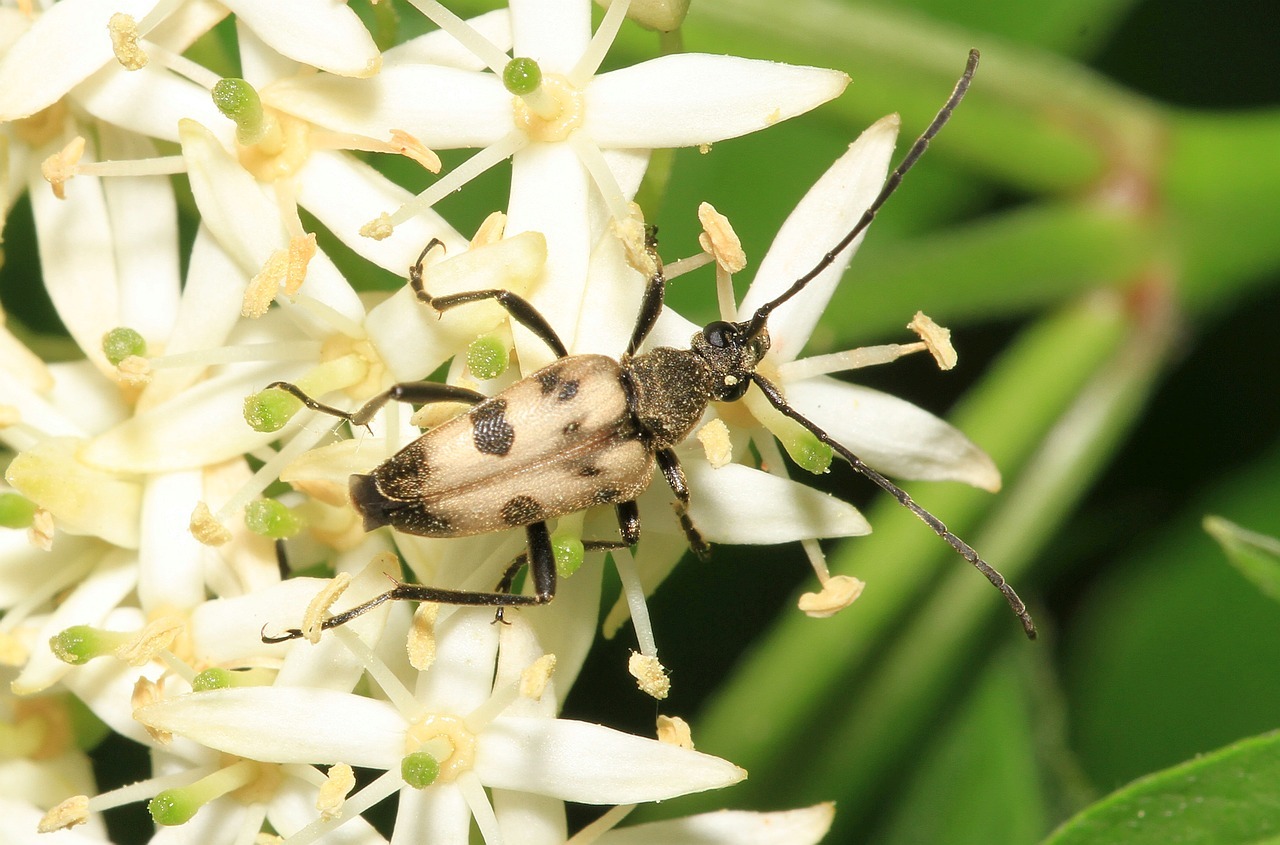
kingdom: Animalia
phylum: Arthropoda
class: Insecta
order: Coleoptera
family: Cerambycidae
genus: Pachytodes
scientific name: Pachytodes cerambyciformis
